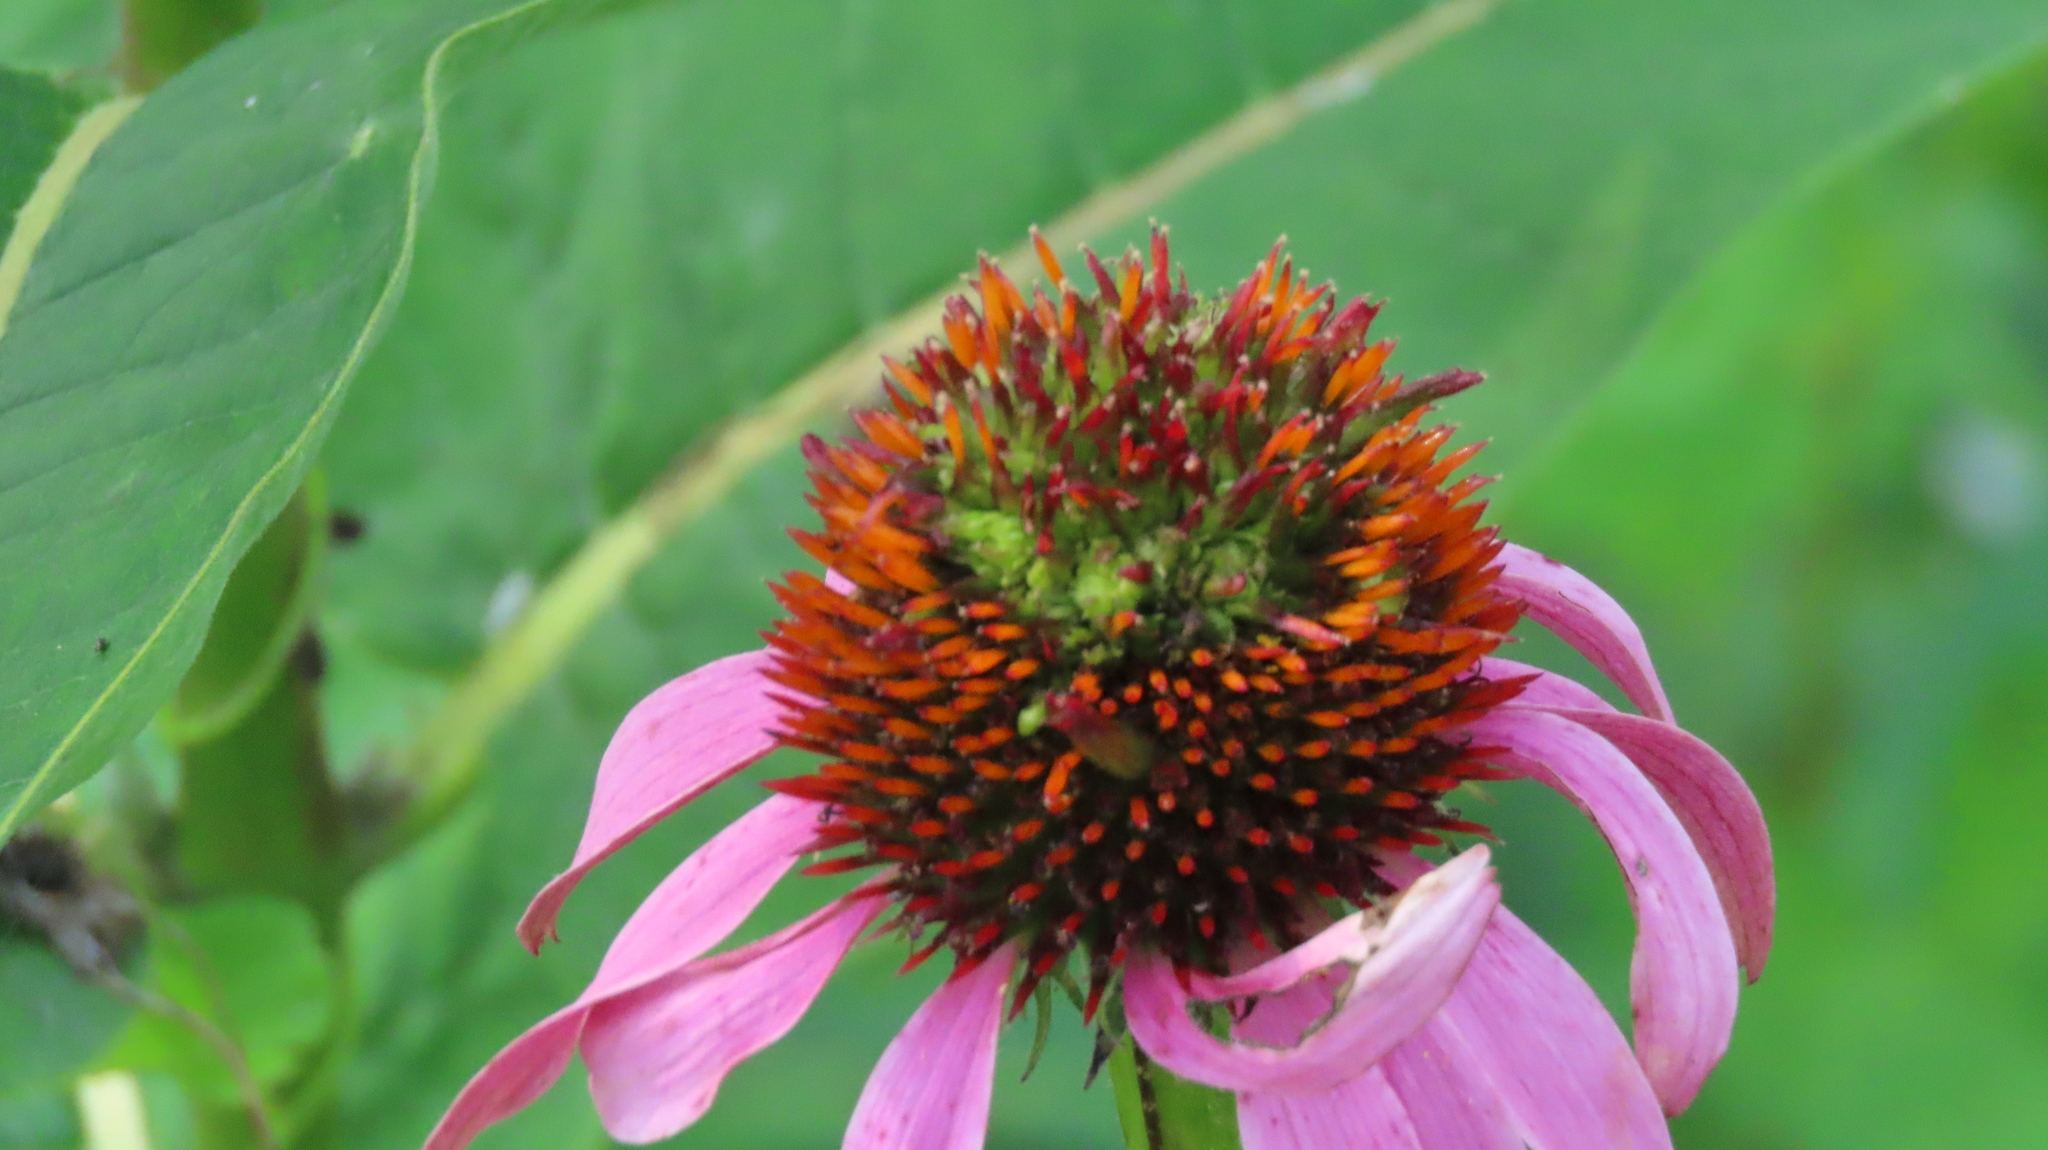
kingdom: Plantae
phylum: Tracheophyta
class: Magnoliopsida
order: Asterales
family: Asteraceae
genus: Echinacea
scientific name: Echinacea purpurea
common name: Broad-leaved purple coneflower
